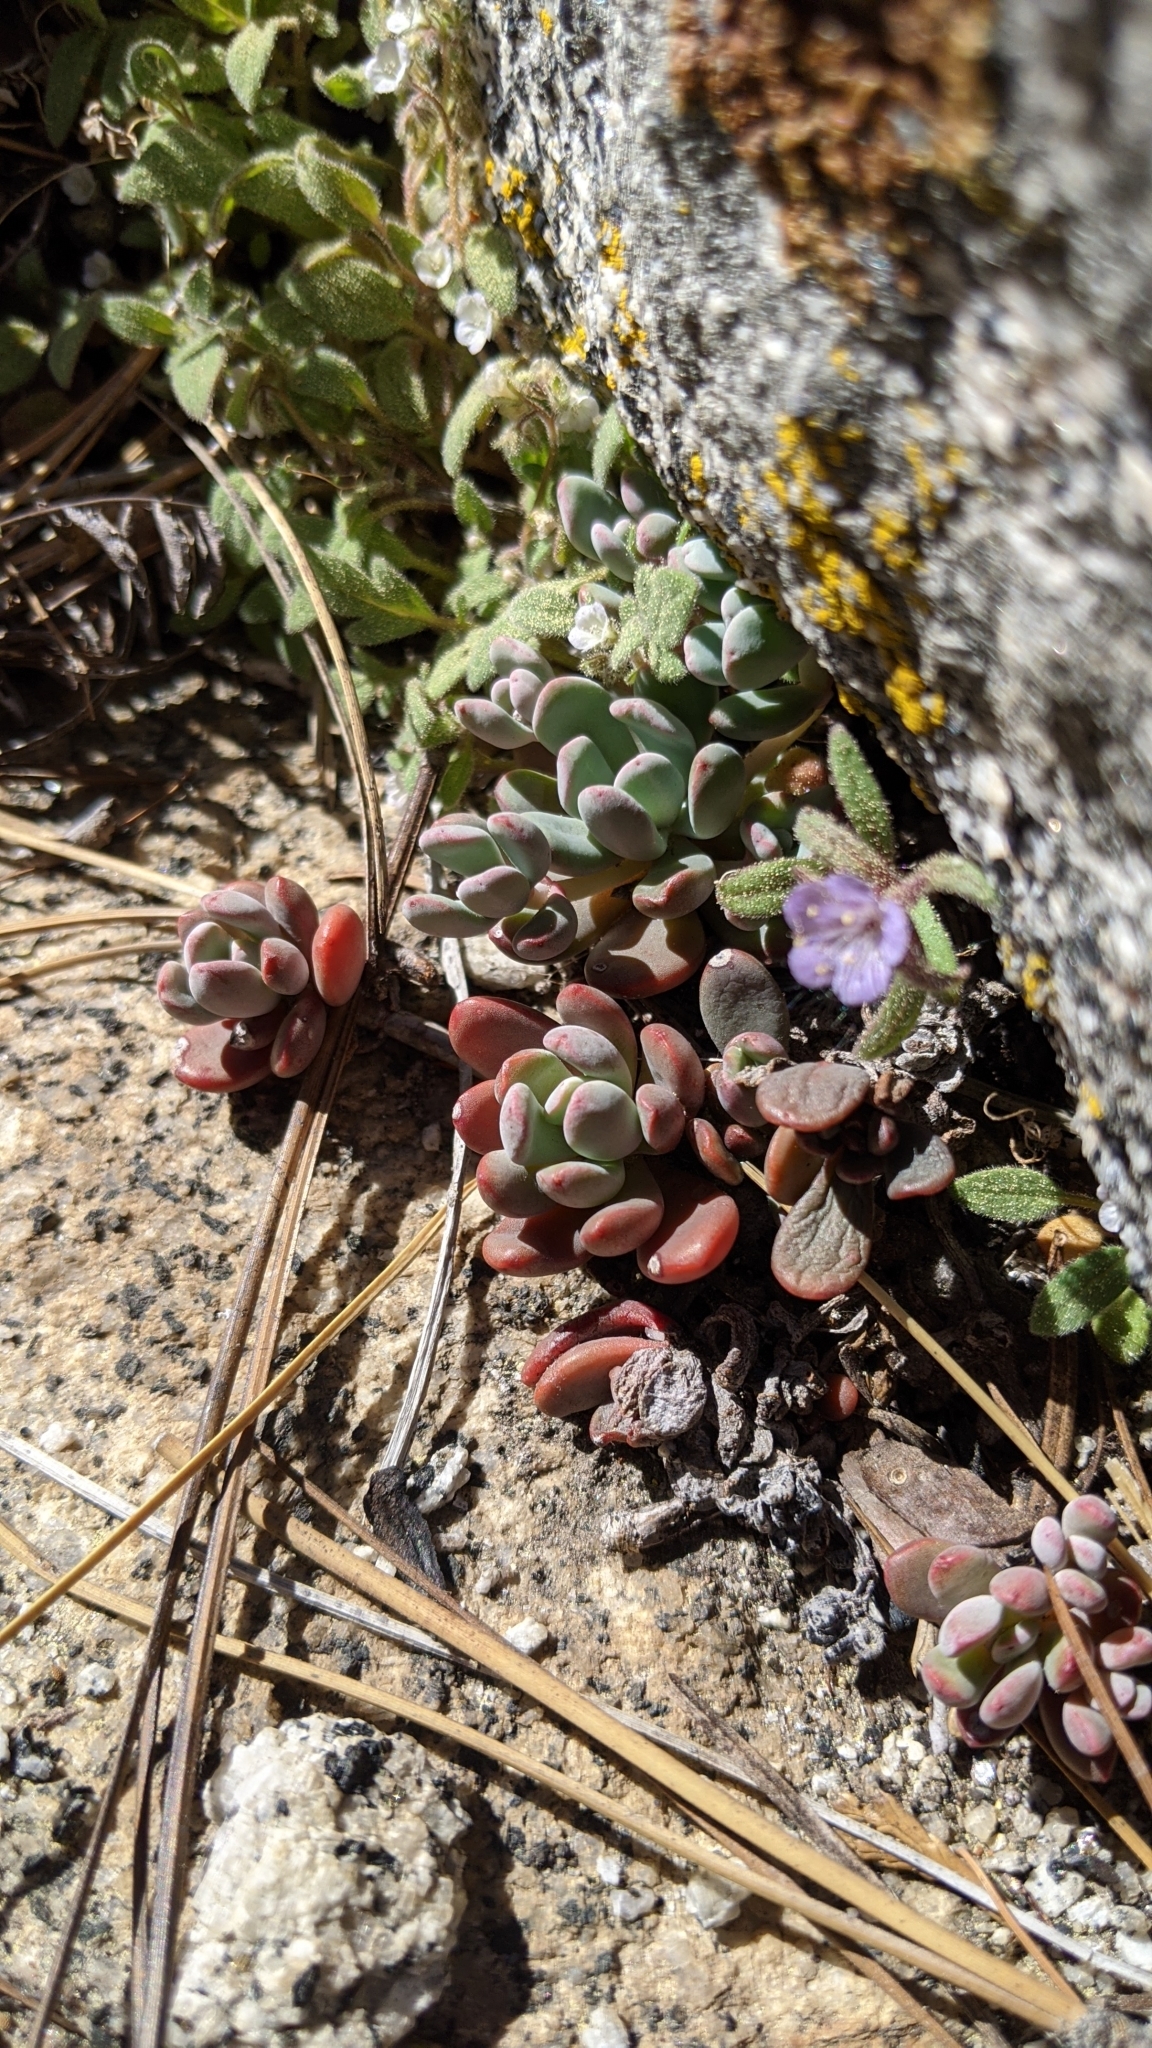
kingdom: Plantae
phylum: Tracheophyta
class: Magnoliopsida
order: Saxifragales
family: Crassulaceae
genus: Sedum
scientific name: Sedum obtusatum
